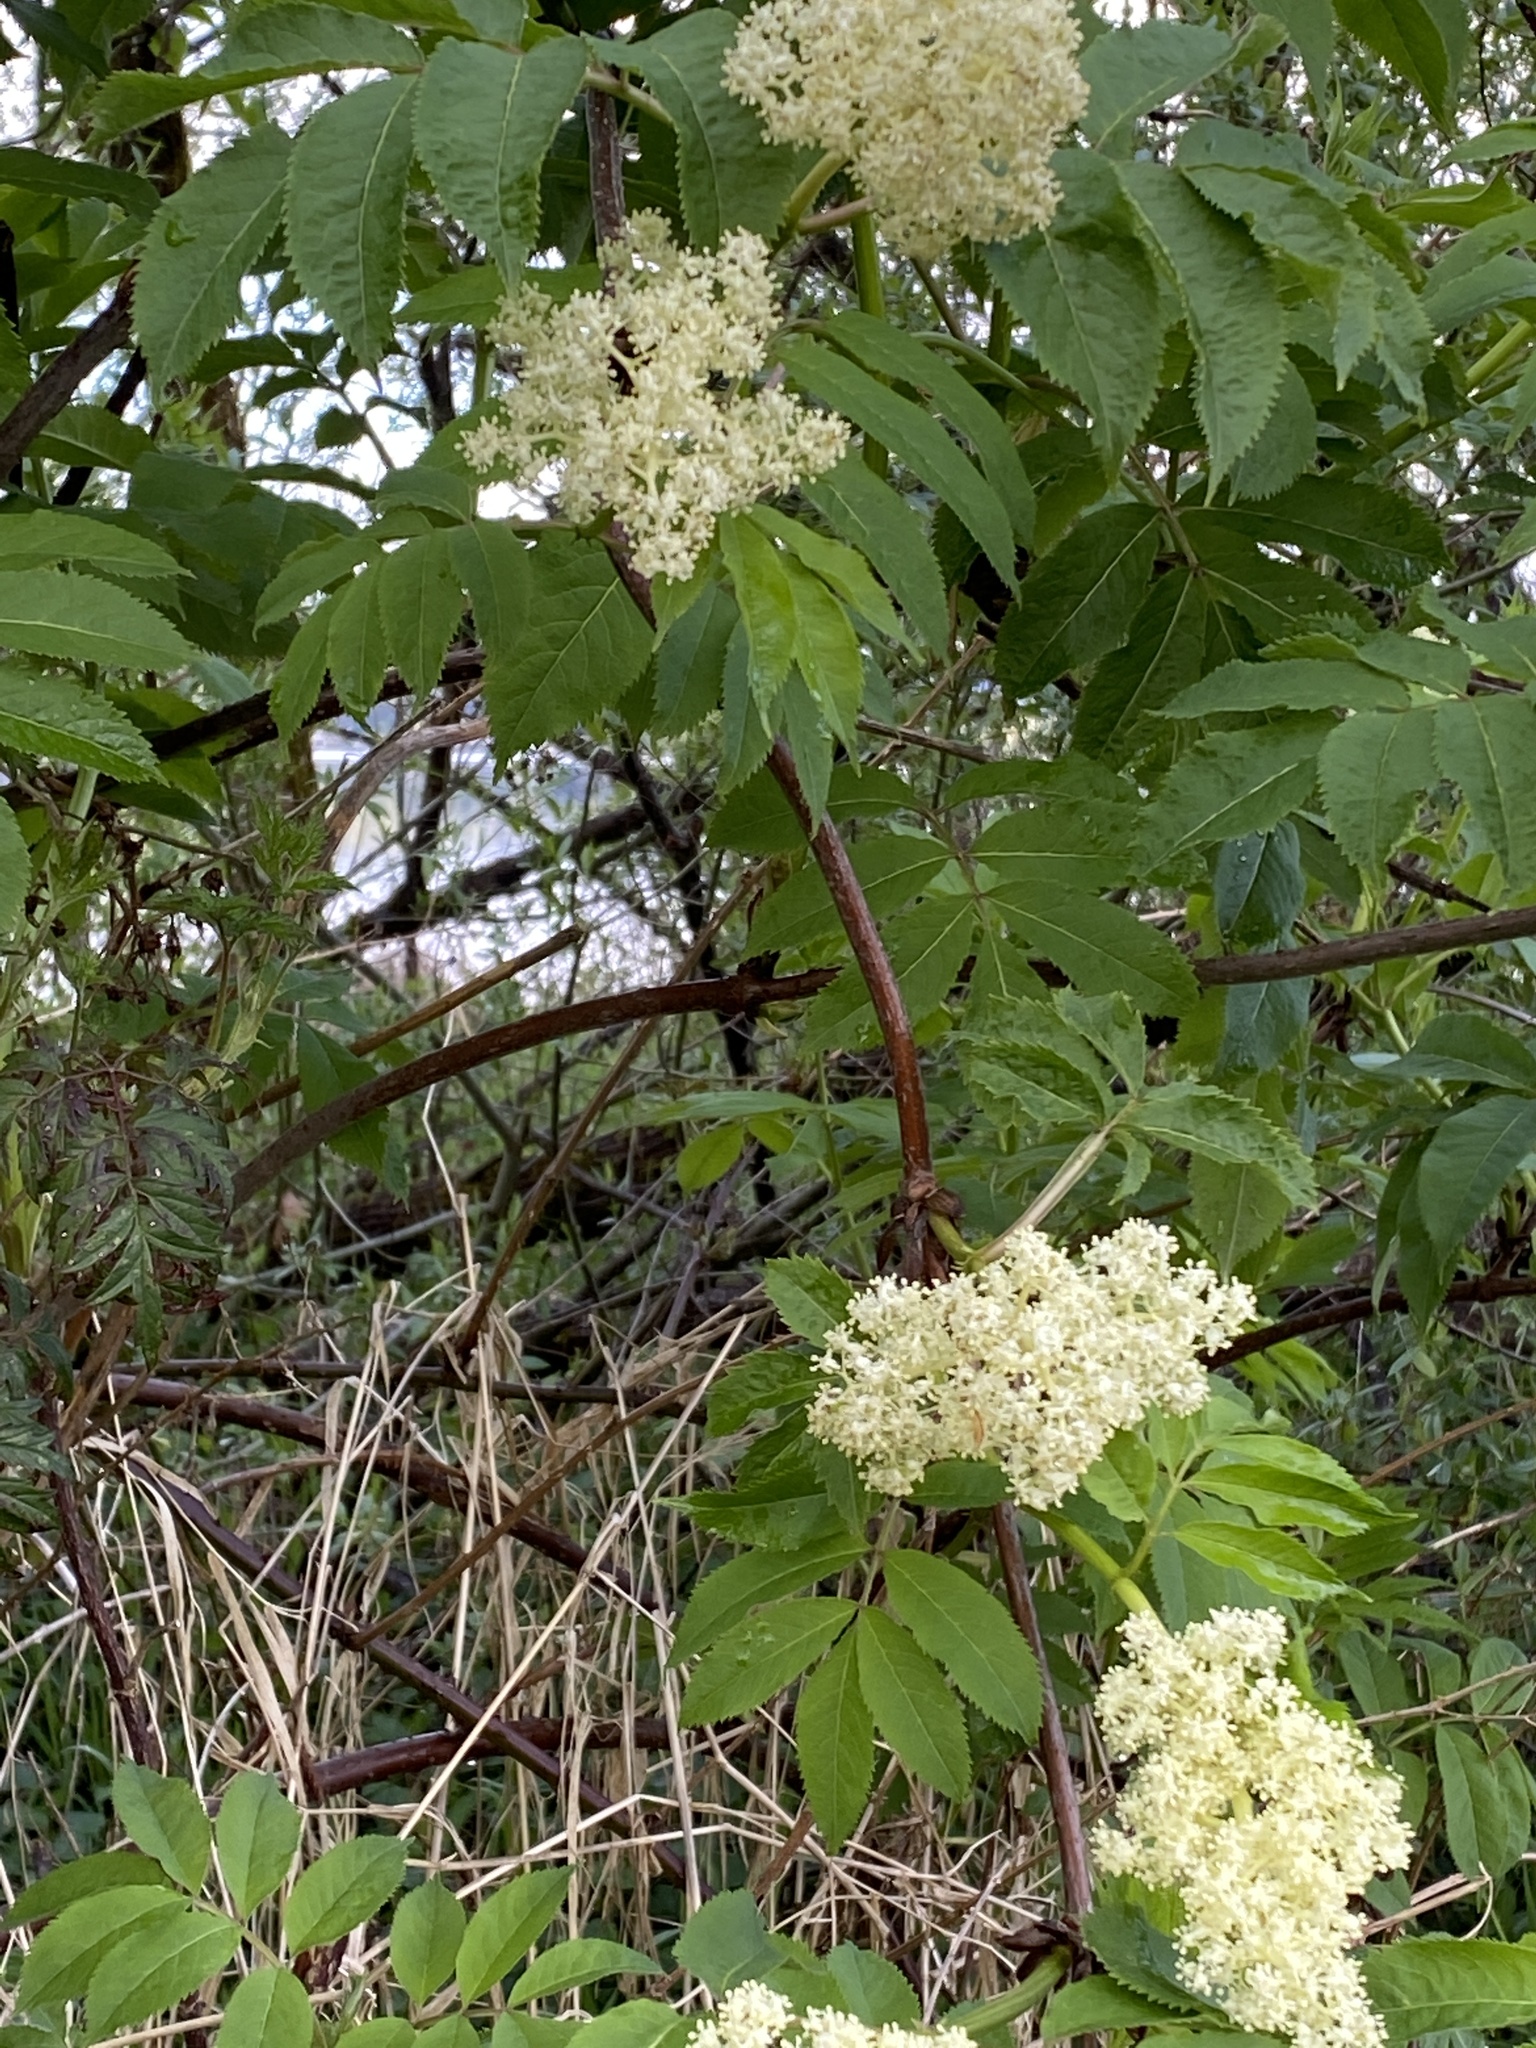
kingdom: Plantae
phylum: Tracheophyta
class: Magnoliopsida
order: Dipsacales
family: Viburnaceae
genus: Sambucus
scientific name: Sambucus racemosa
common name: Red-berried elder
